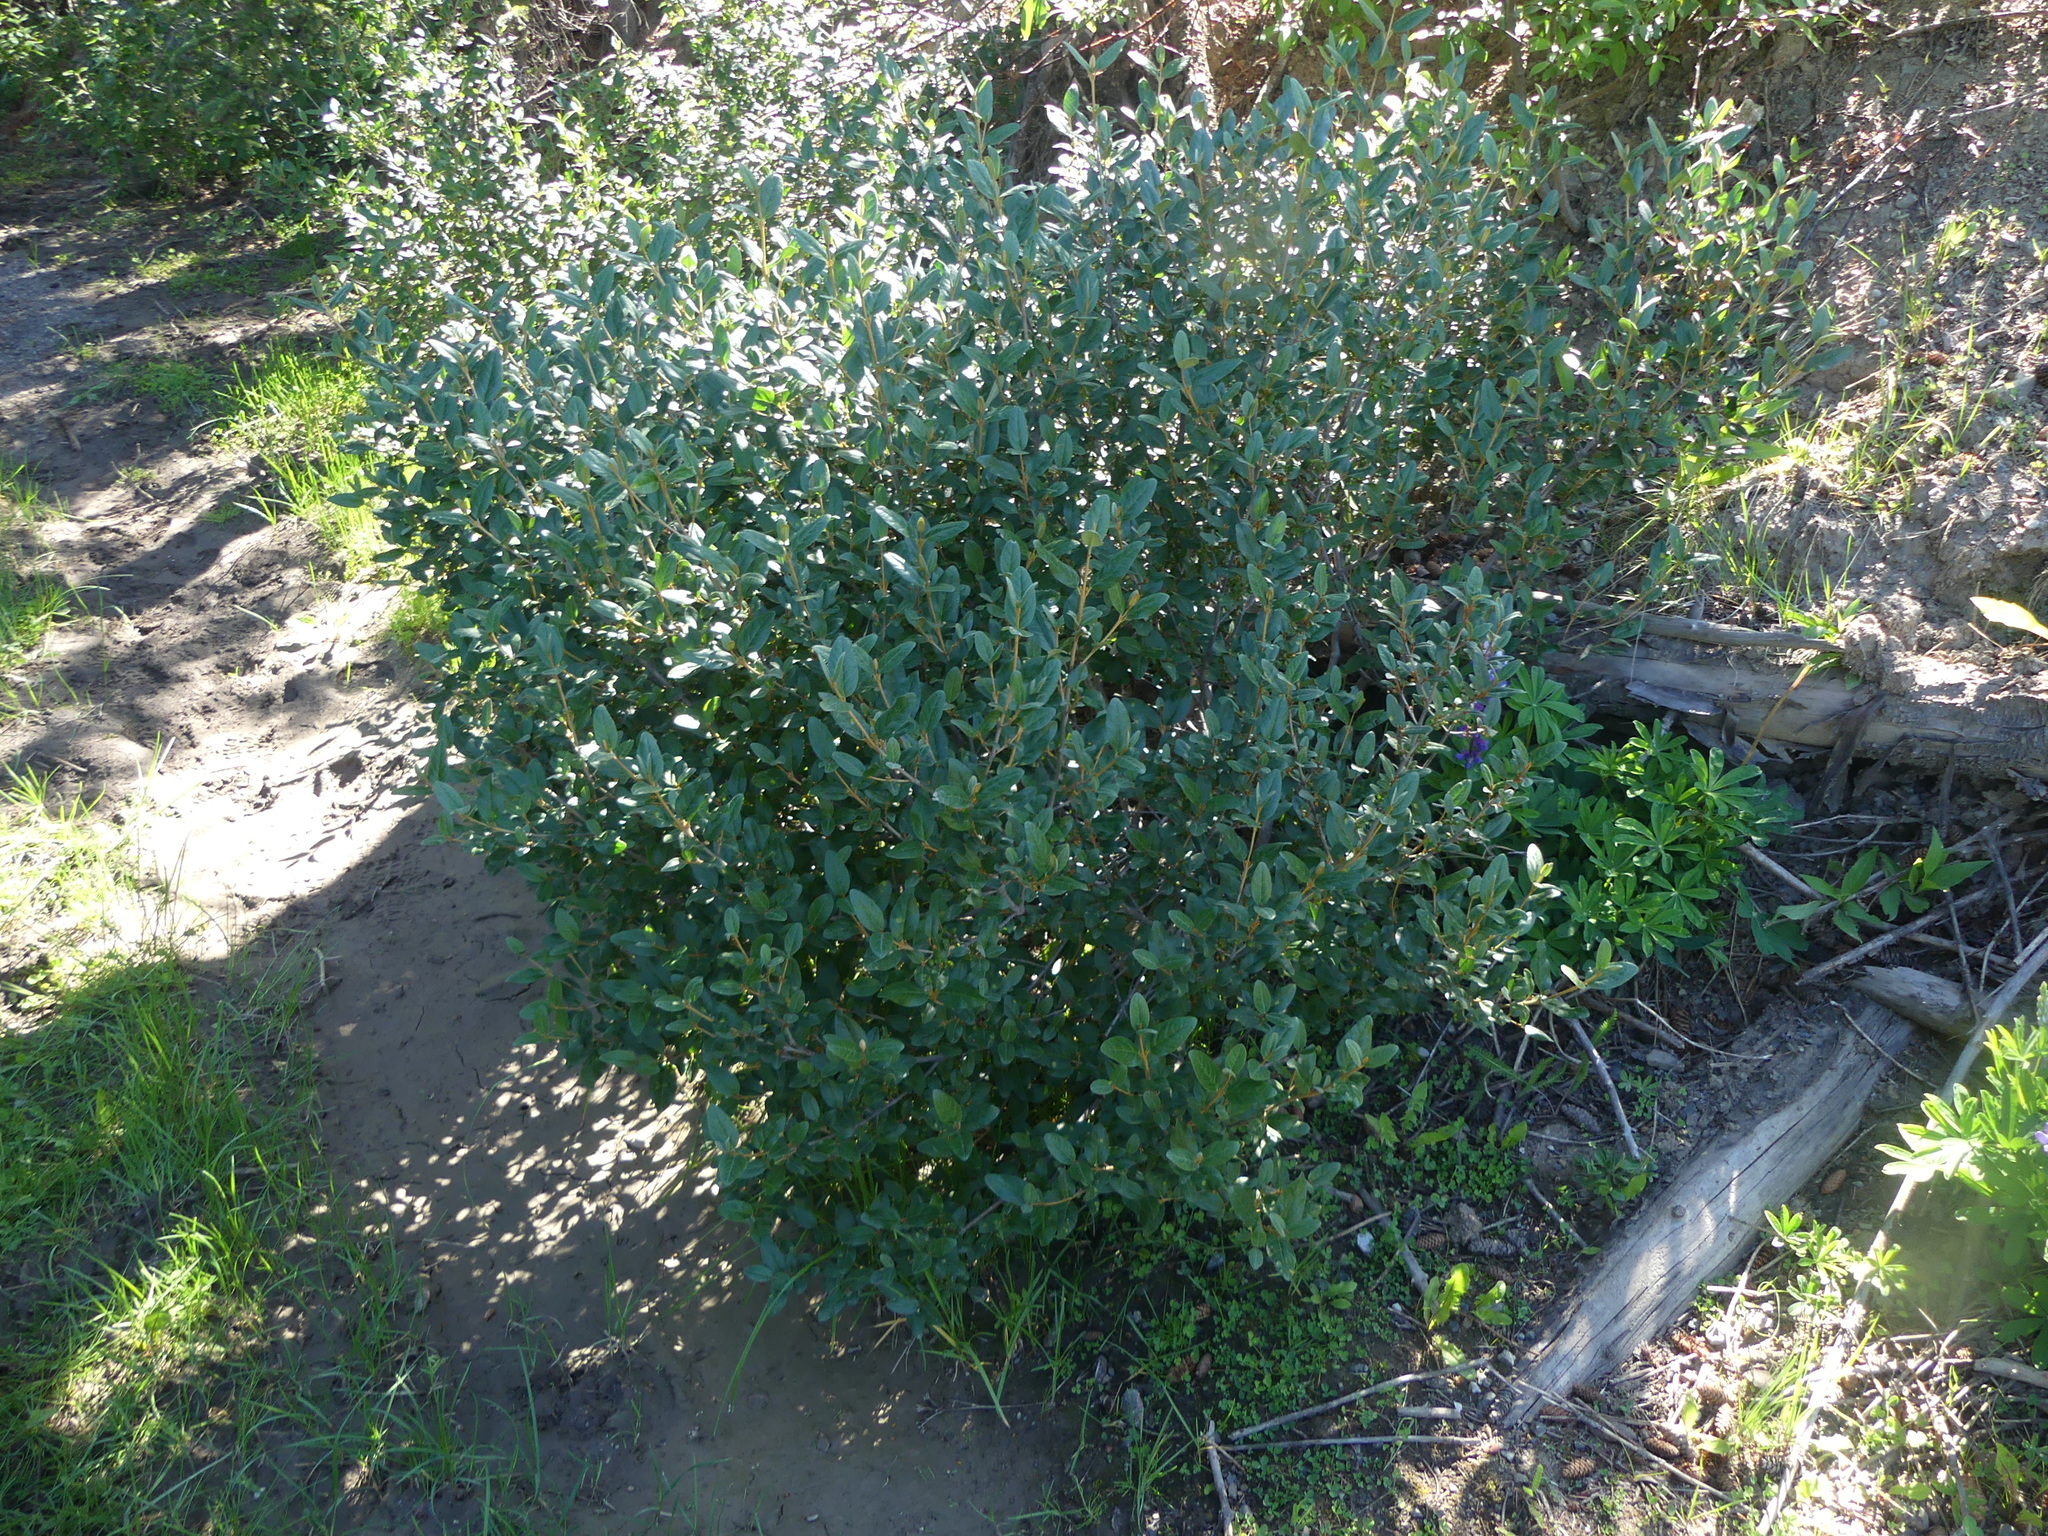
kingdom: Plantae
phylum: Tracheophyta
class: Magnoliopsida
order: Rosales
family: Elaeagnaceae
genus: Shepherdia
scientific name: Shepherdia canadensis
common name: Soapberry
